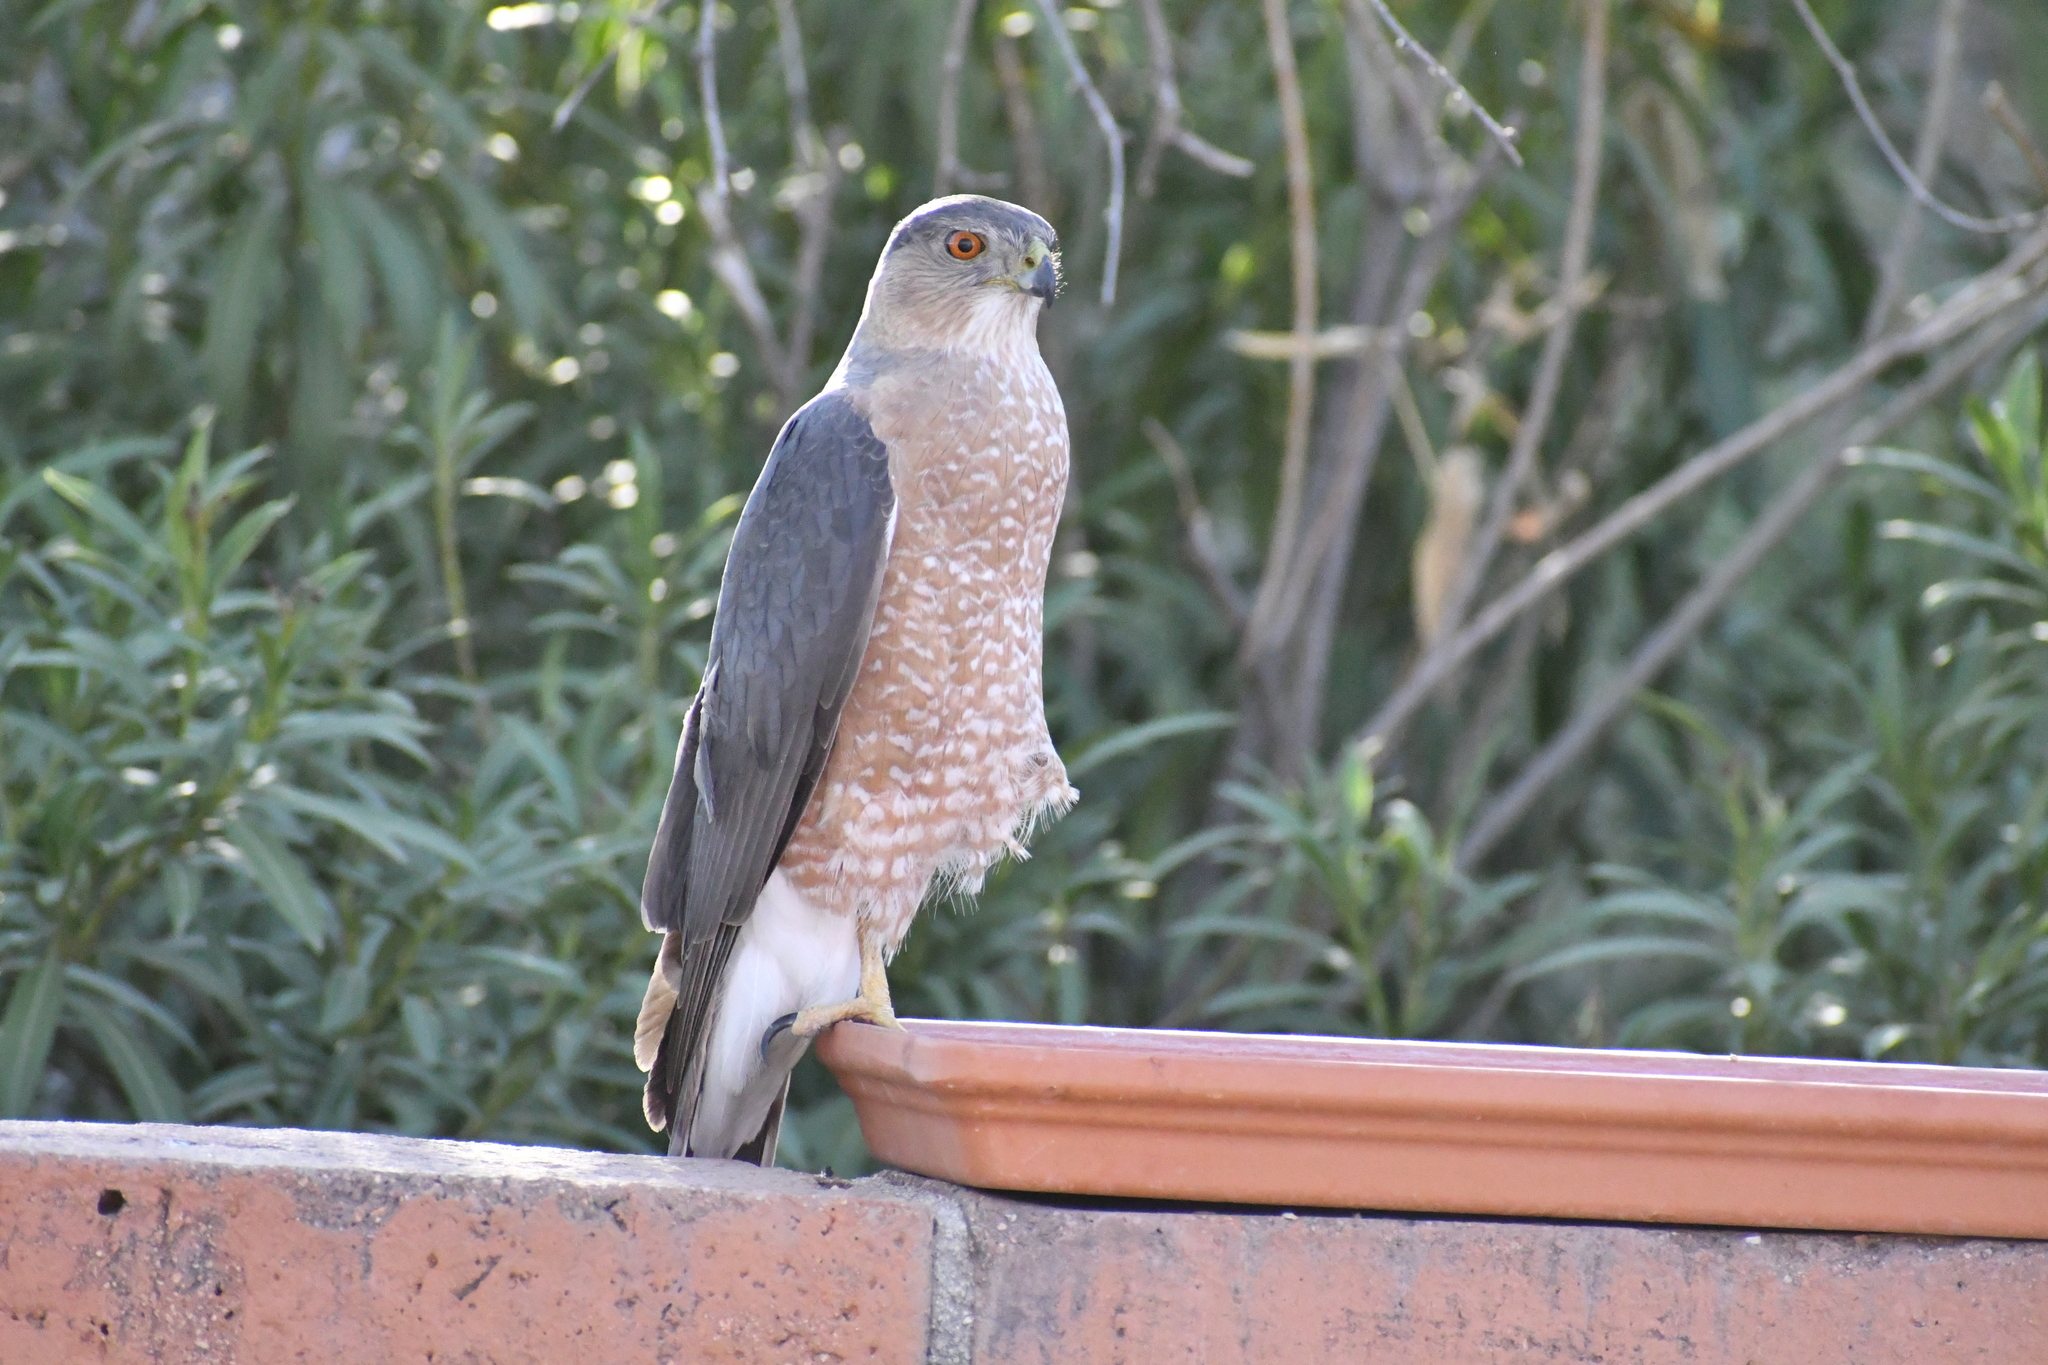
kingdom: Animalia
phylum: Chordata
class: Aves
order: Accipitriformes
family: Accipitridae
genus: Accipiter
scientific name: Accipiter cooperii
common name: Cooper's hawk
